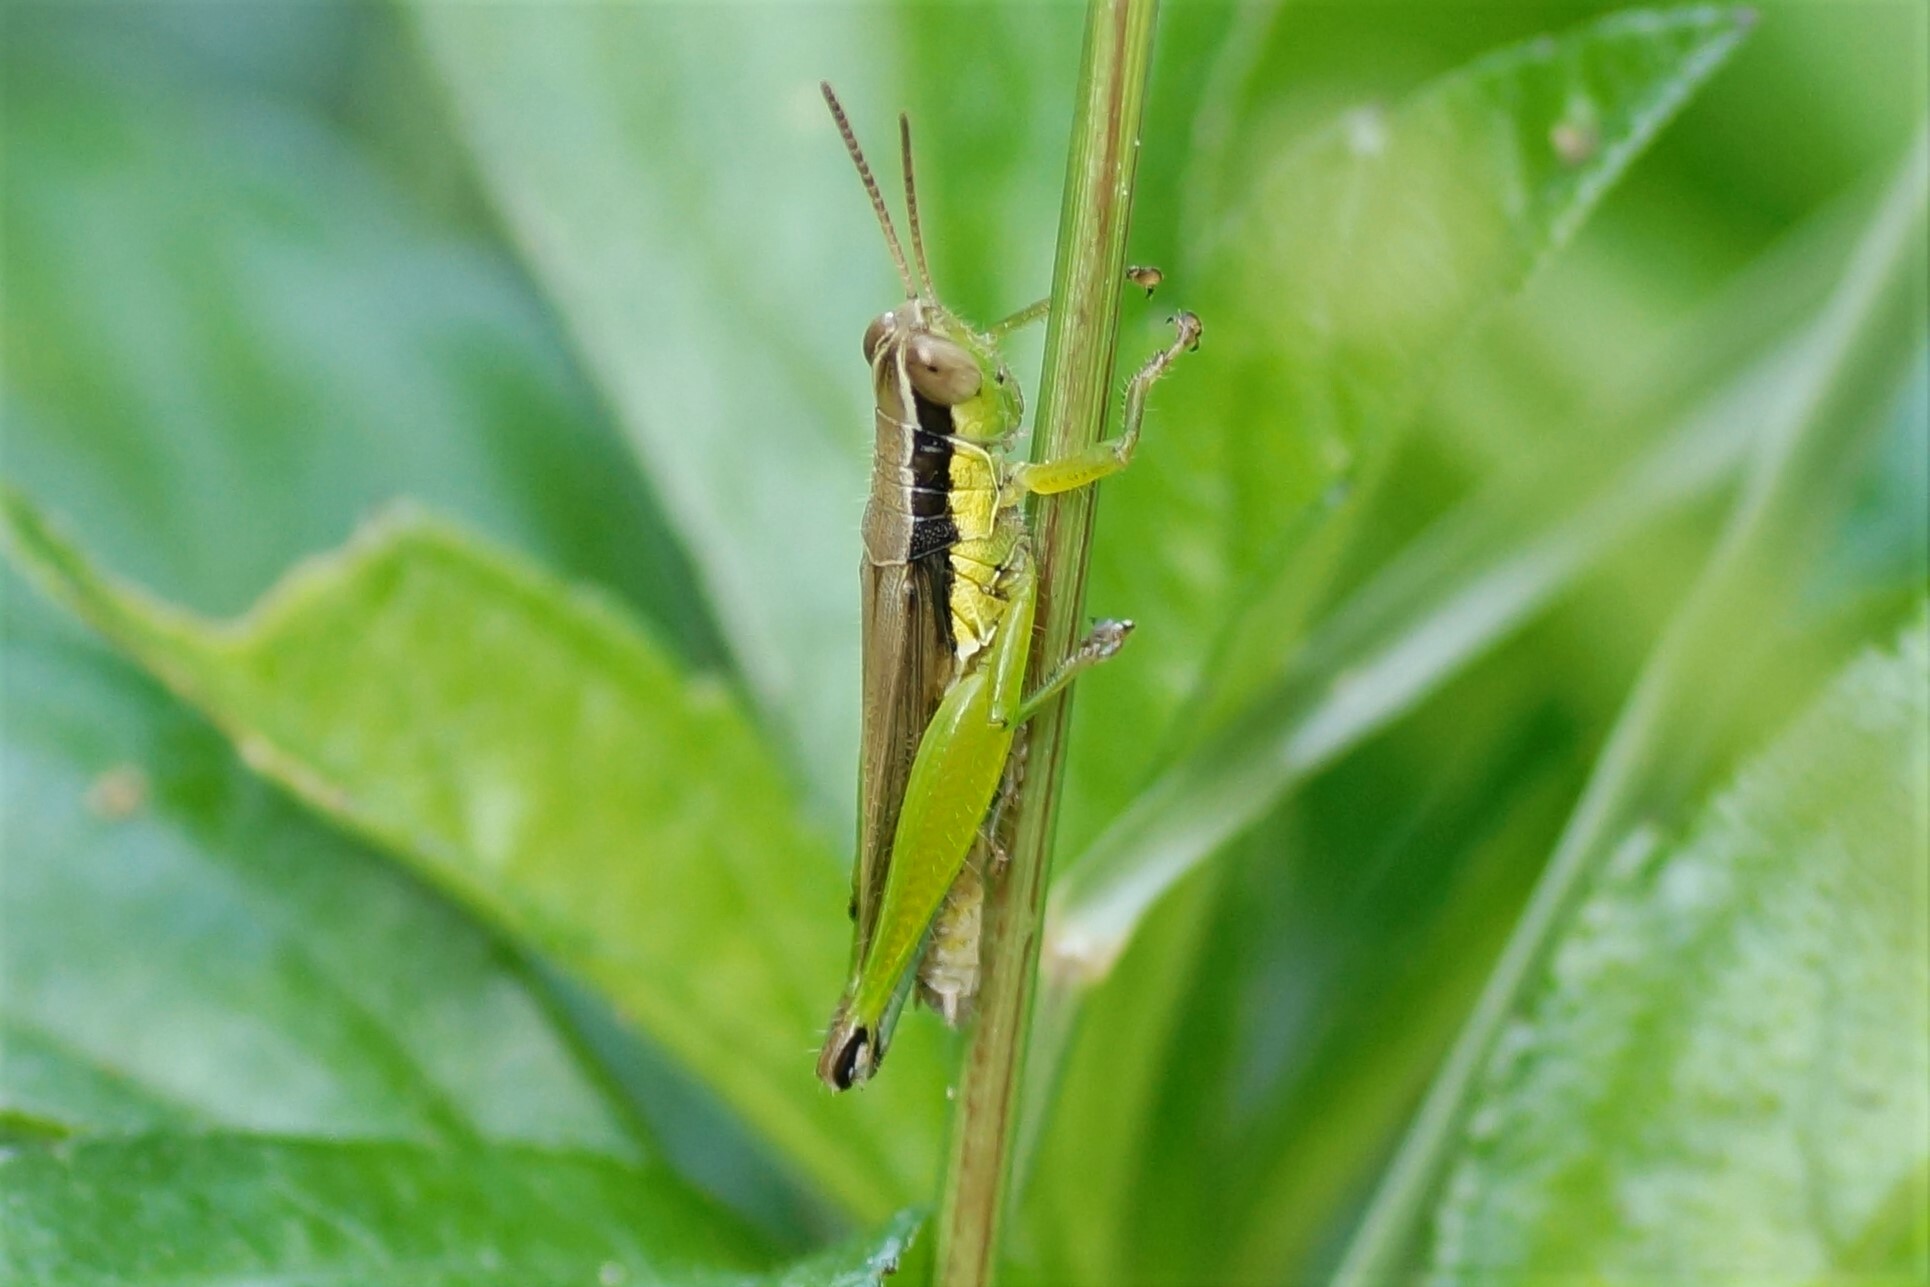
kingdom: Animalia
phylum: Arthropoda
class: Insecta
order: Orthoptera
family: Acrididae
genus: Gesonula
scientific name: Gesonula mundata
